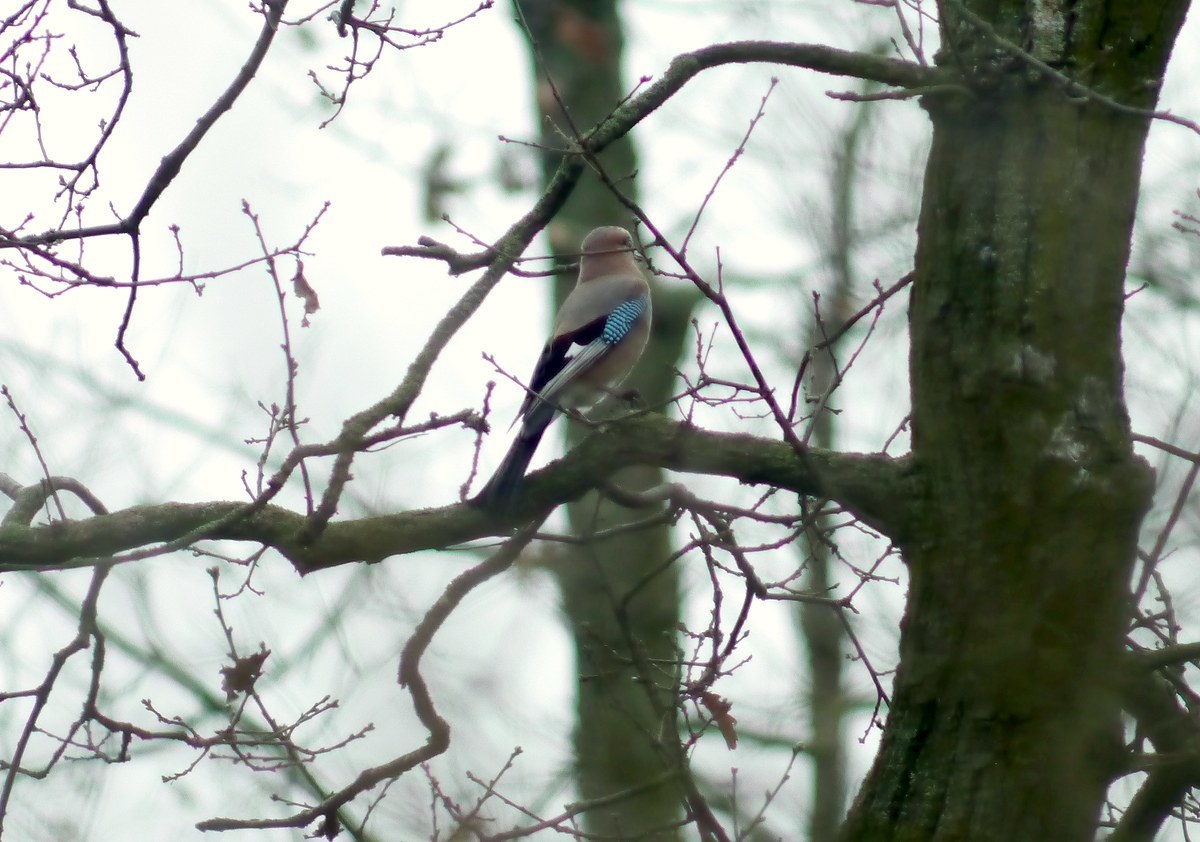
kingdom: Animalia
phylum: Chordata
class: Aves
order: Passeriformes
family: Corvidae
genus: Garrulus
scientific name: Garrulus glandarius
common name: Eurasian jay
